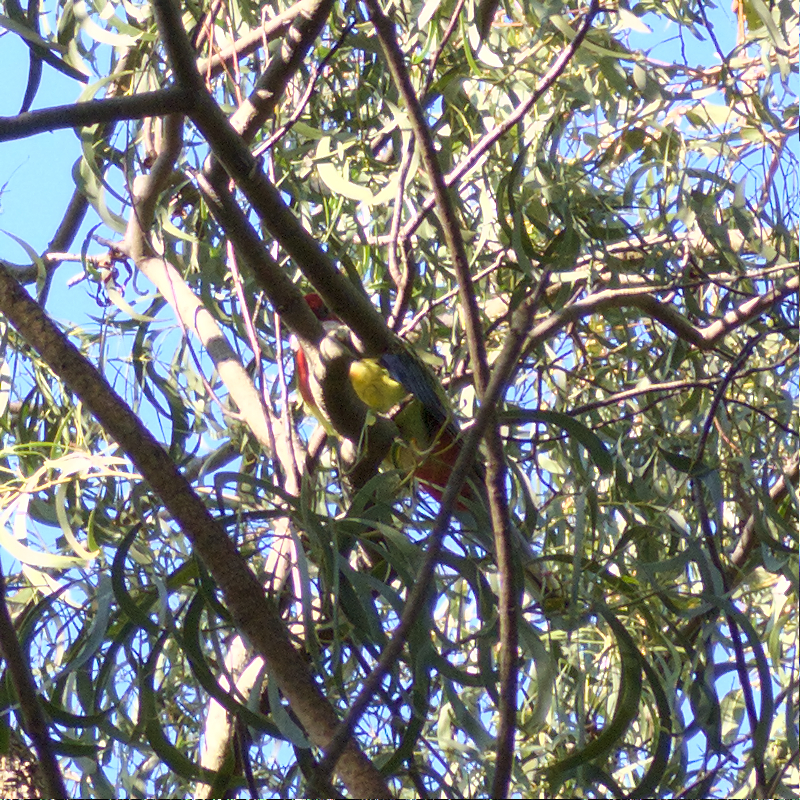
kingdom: Animalia
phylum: Chordata
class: Aves
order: Psittaciformes
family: Psittacidae
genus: Platycercus
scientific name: Platycercus eximius
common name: Eastern rosella
